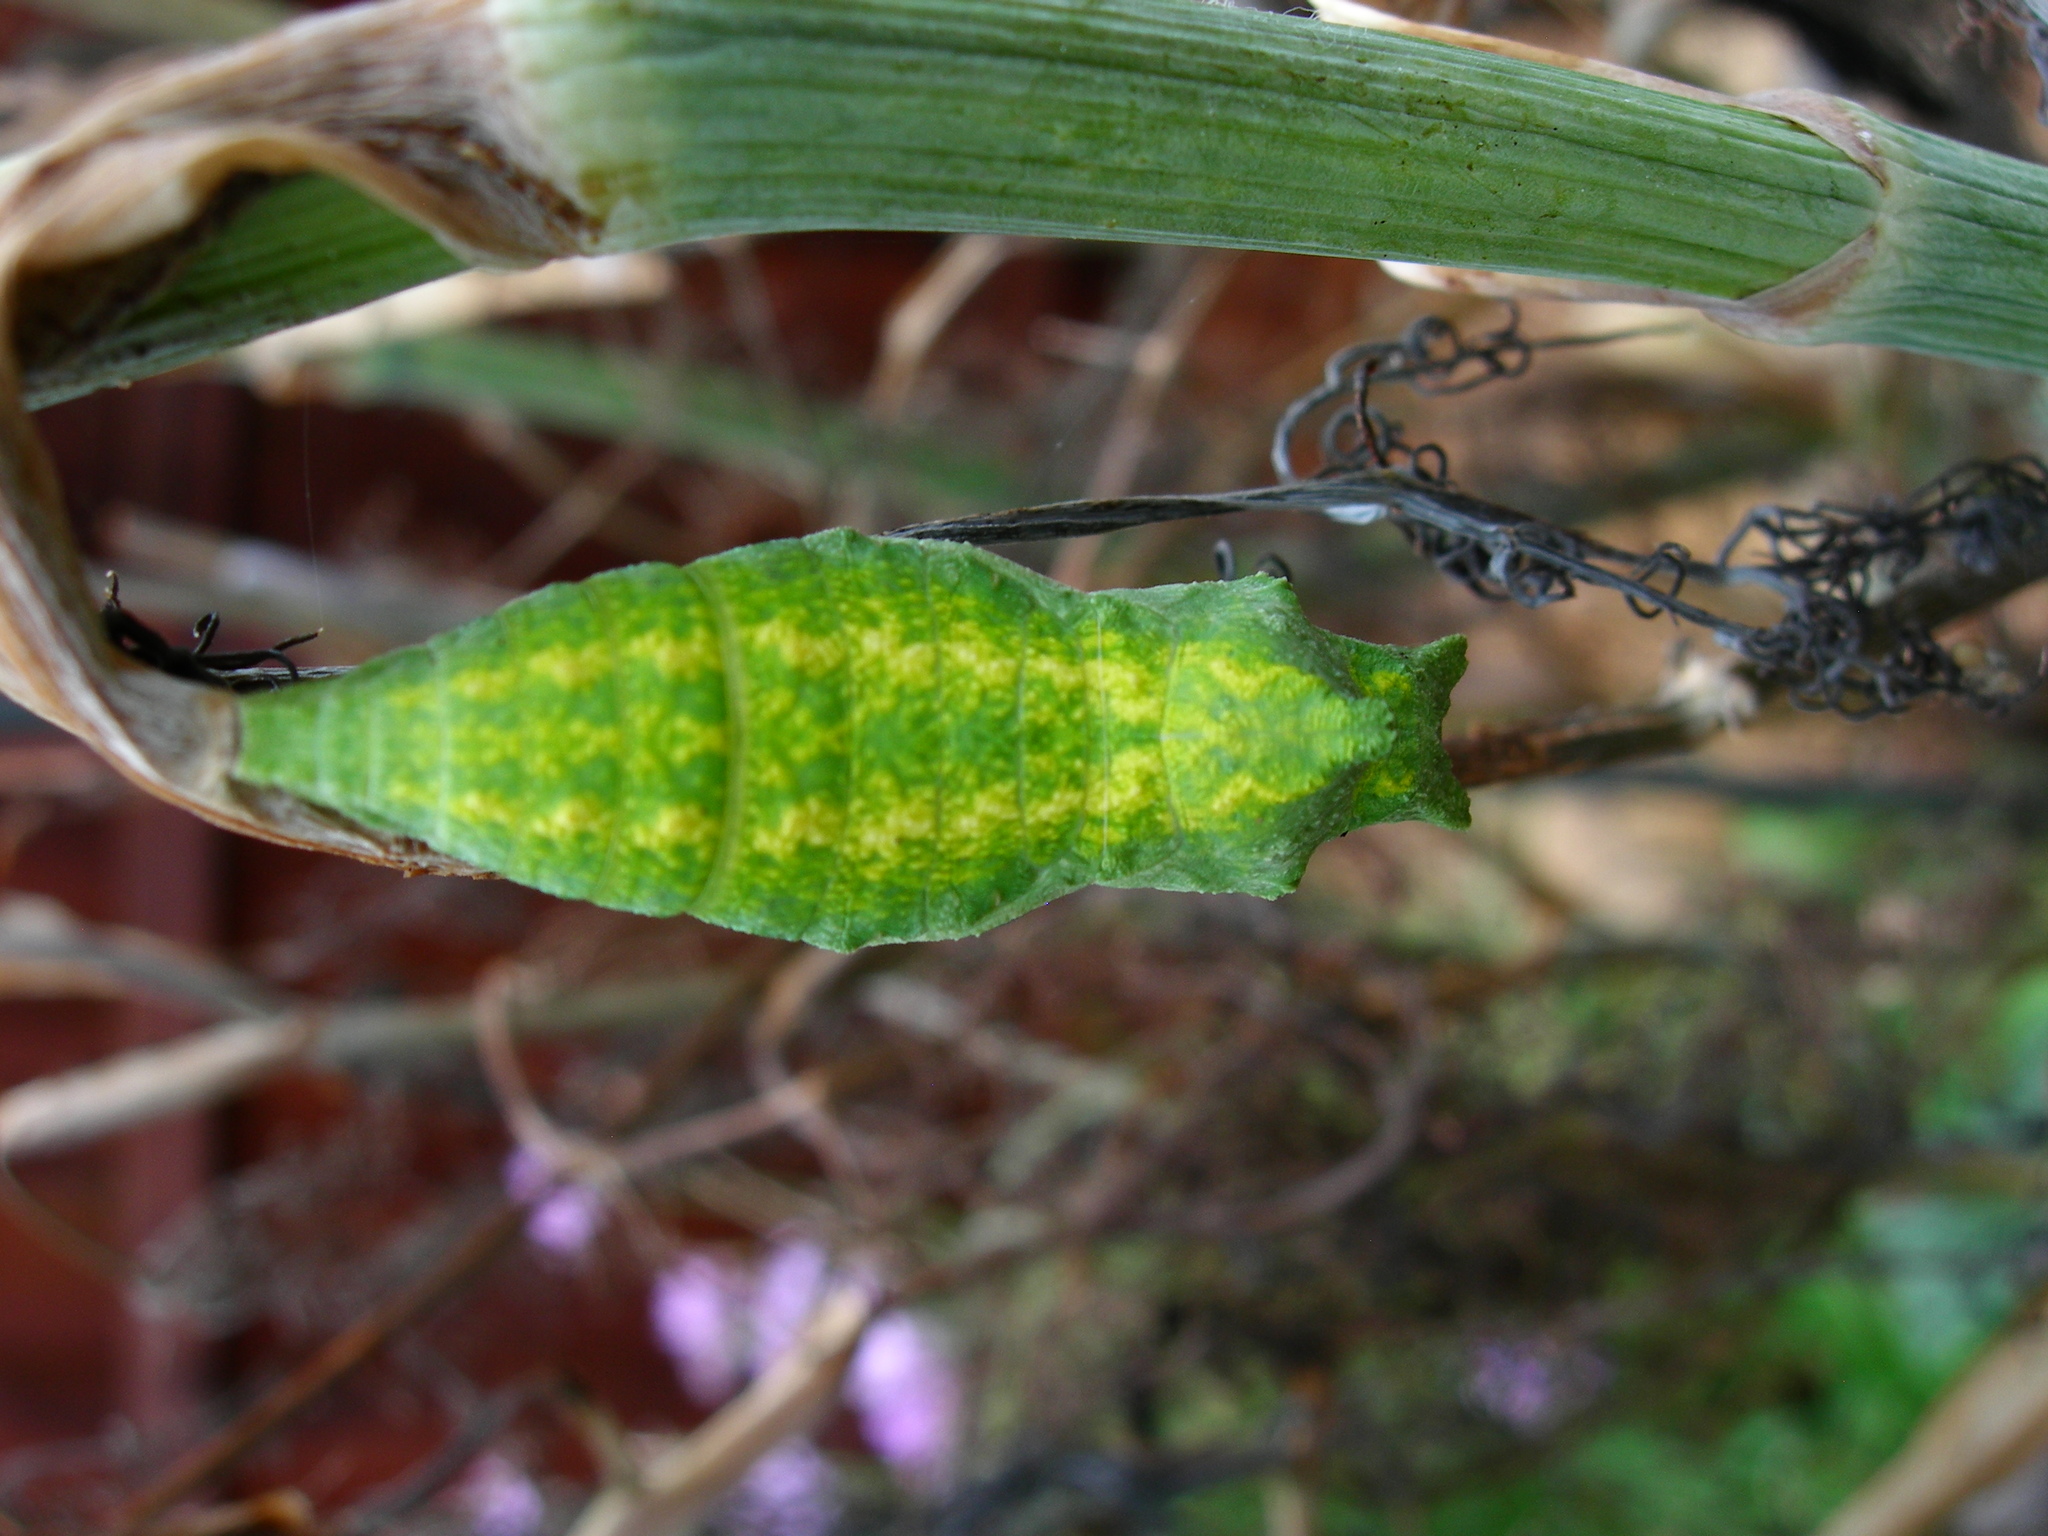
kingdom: Animalia
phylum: Arthropoda
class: Insecta
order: Lepidoptera
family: Papilionidae
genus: Papilio
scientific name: Papilio polyxenes
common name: Black swallowtail
